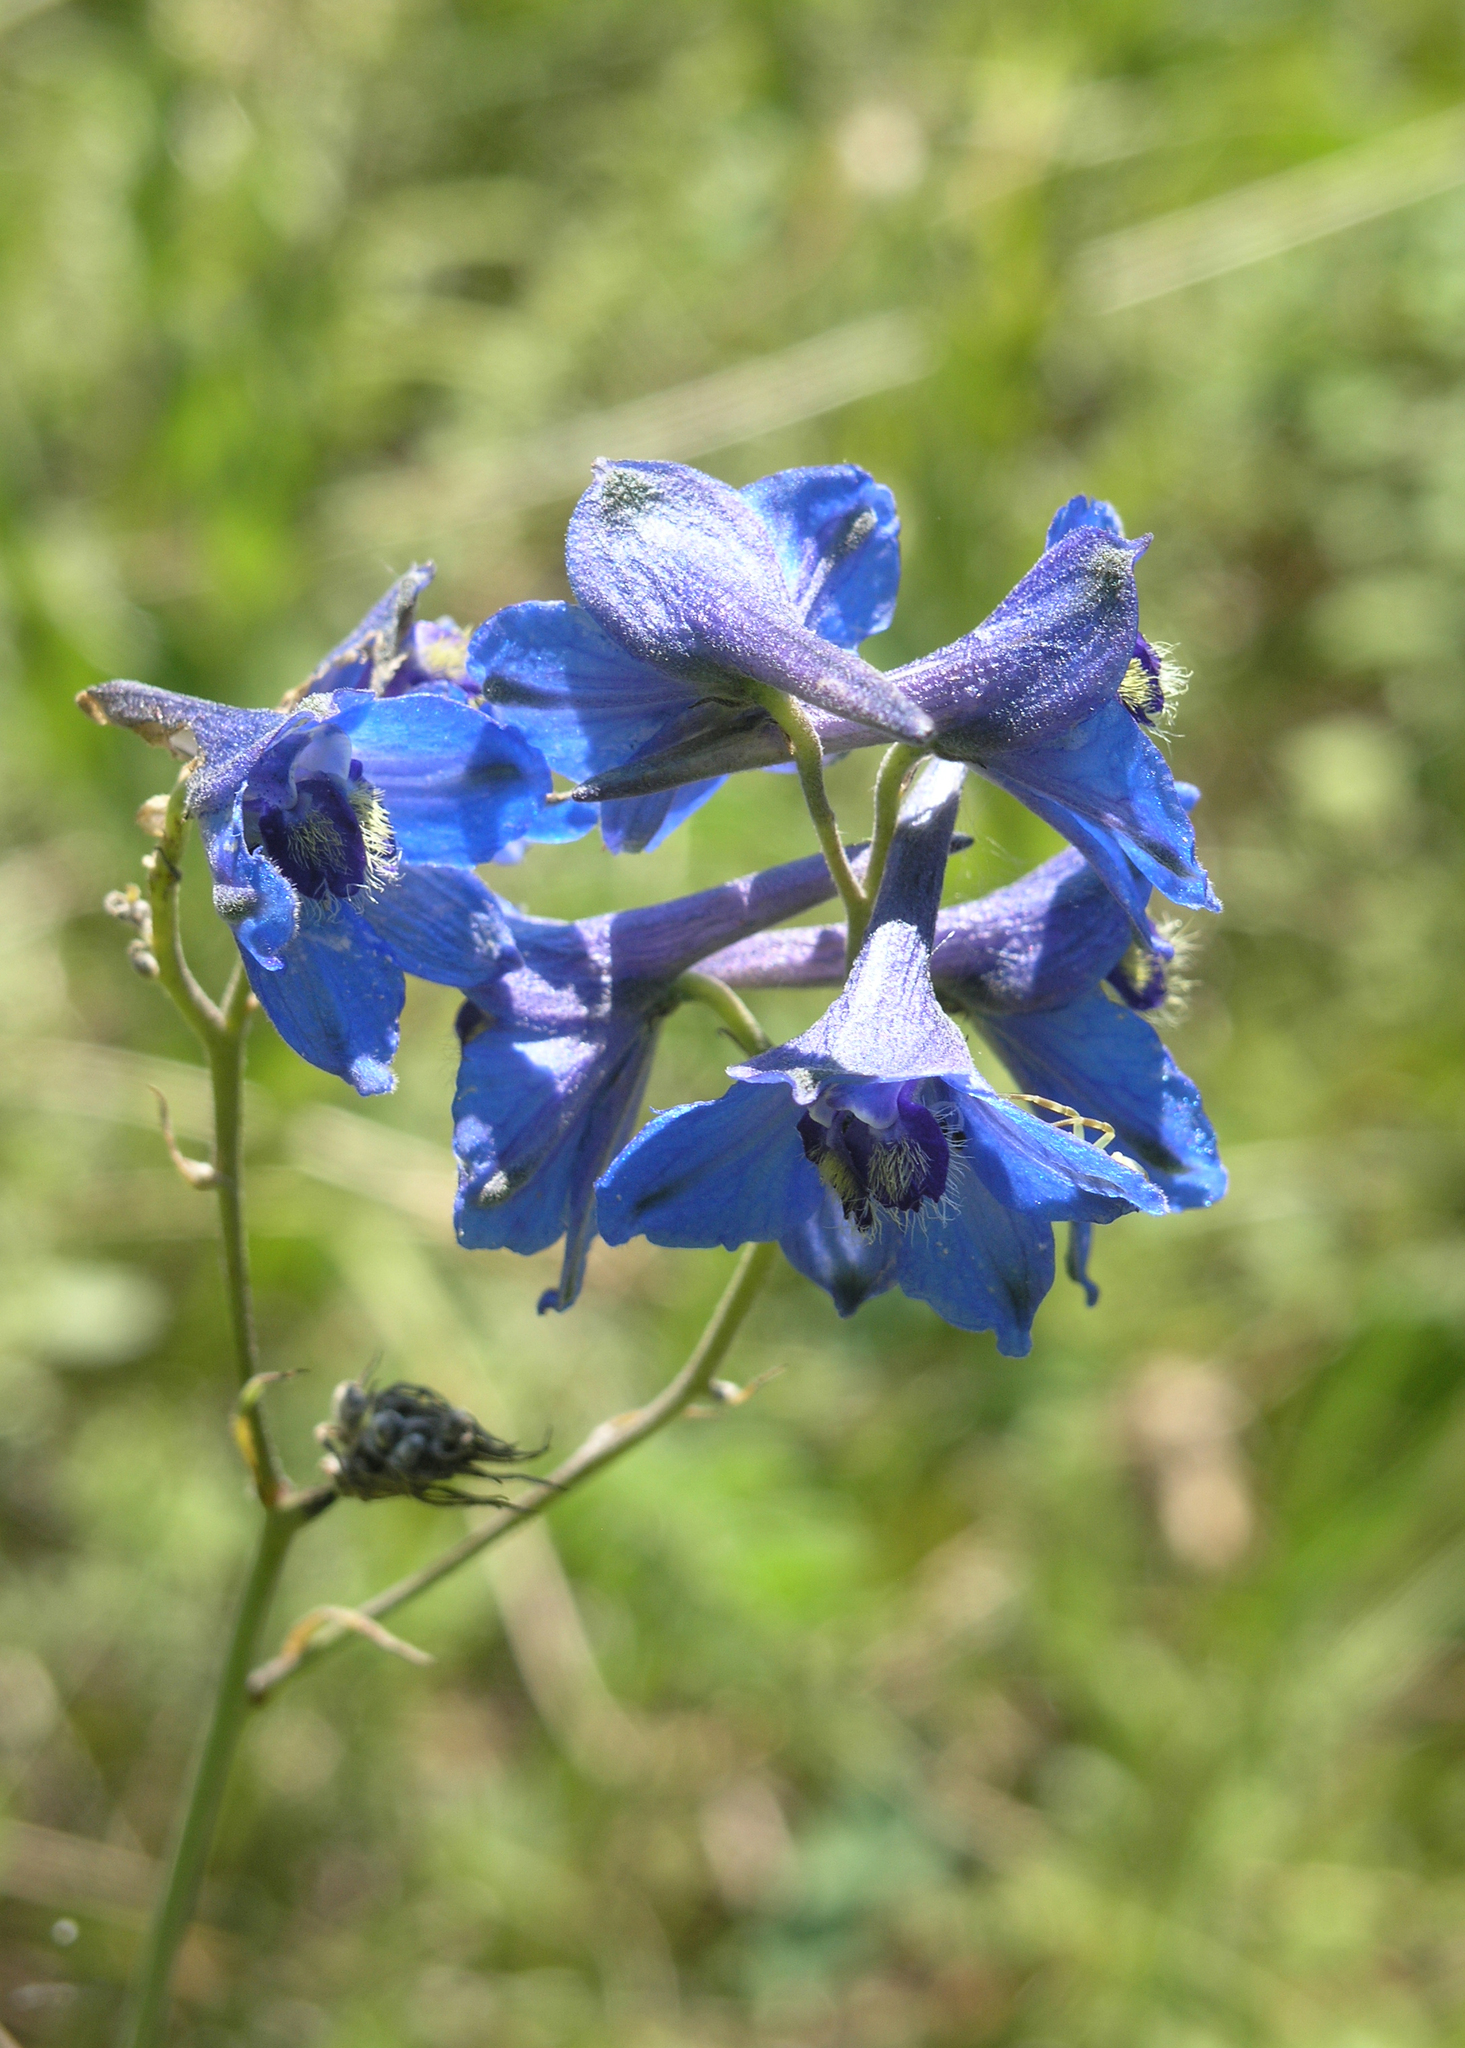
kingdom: Plantae
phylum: Tracheophyta
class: Magnoliopsida
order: Ranunculales
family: Ranunculaceae
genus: Delphinium
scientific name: Delphinium laxiflorum
